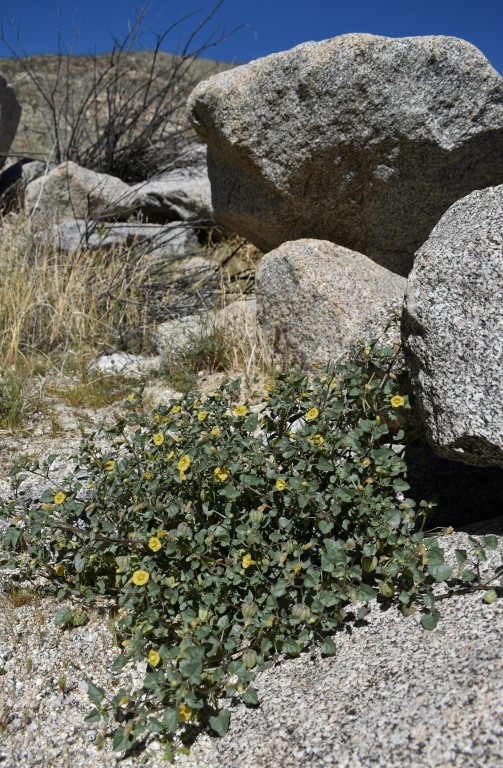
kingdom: Plantae
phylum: Tracheophyta
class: Magnoliopsida
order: Solanales
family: Solanaceae
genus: Physalis
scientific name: Physalis crassifolia
